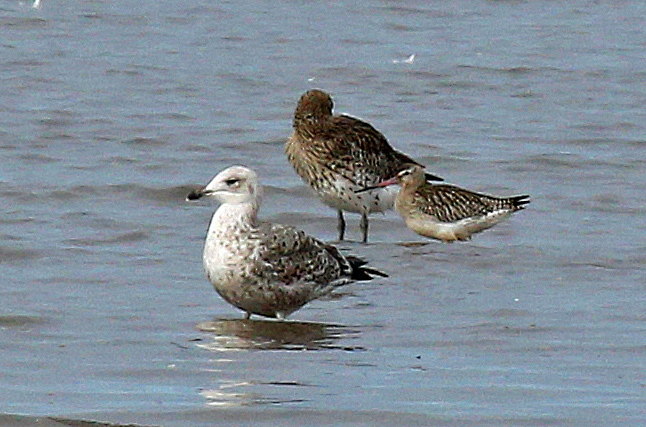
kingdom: Animalia
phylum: Chordata
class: Aves
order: Charadriiformes
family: Scolopacidae
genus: Limosa
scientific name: Limosa lapponica
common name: Bar-tailed godwit
